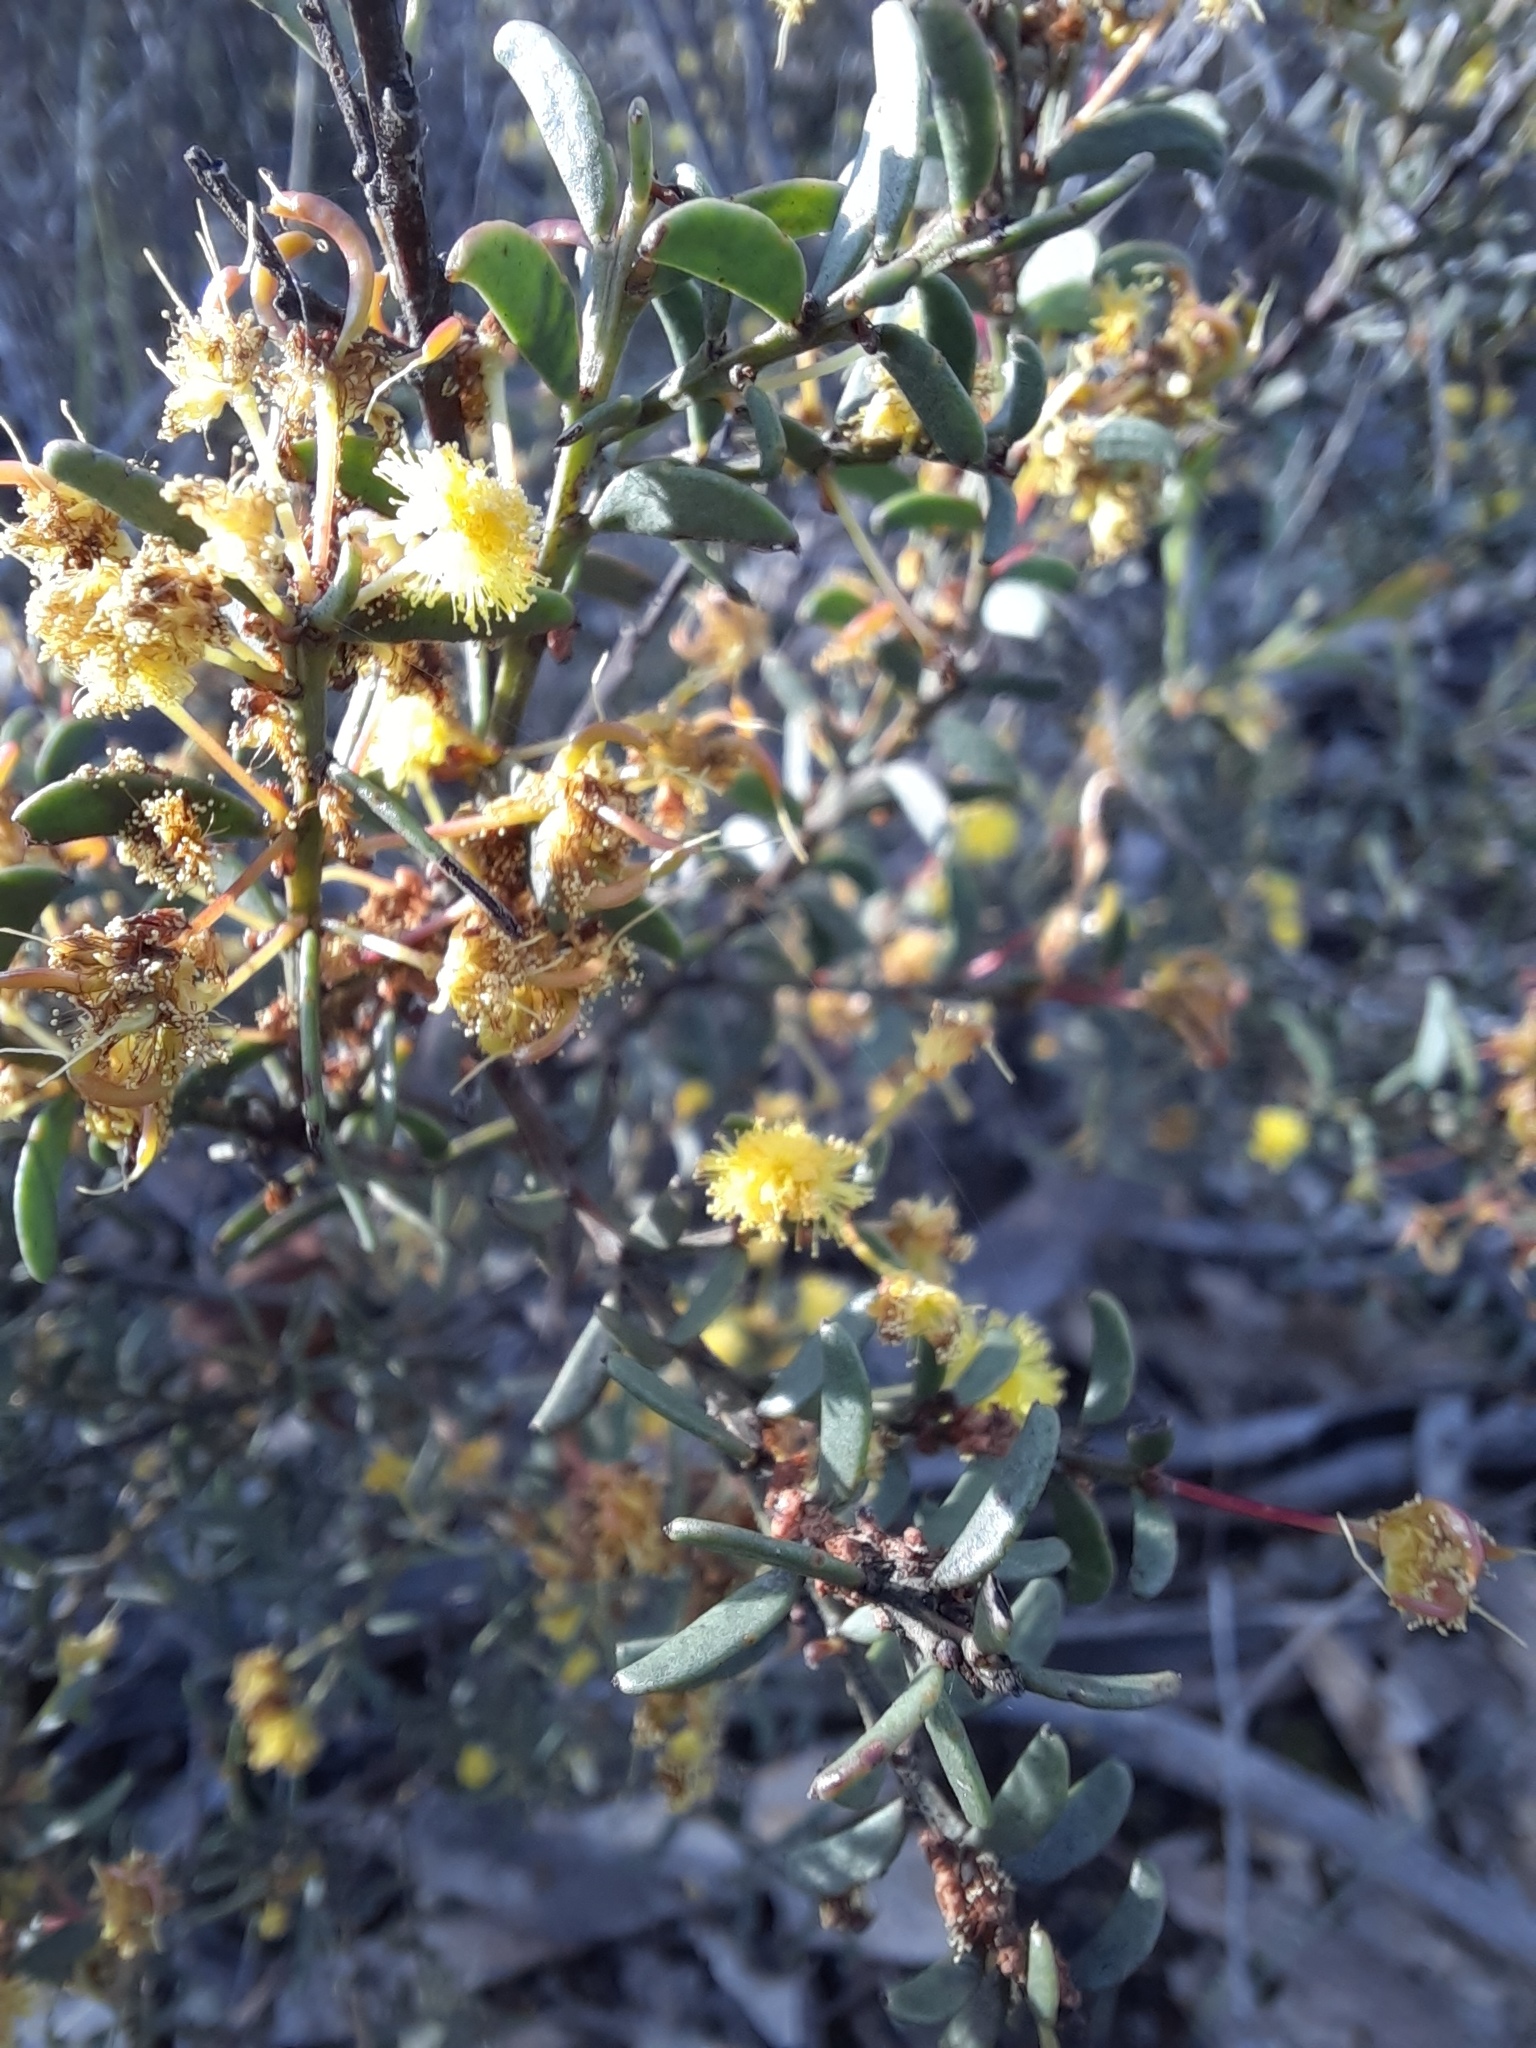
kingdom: Plantae
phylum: Tracheophyta
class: Magnoliopsida
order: Fabales
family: Fabaceae
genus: Acacia
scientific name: Acacia acinacea
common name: Gold-dust acacia
